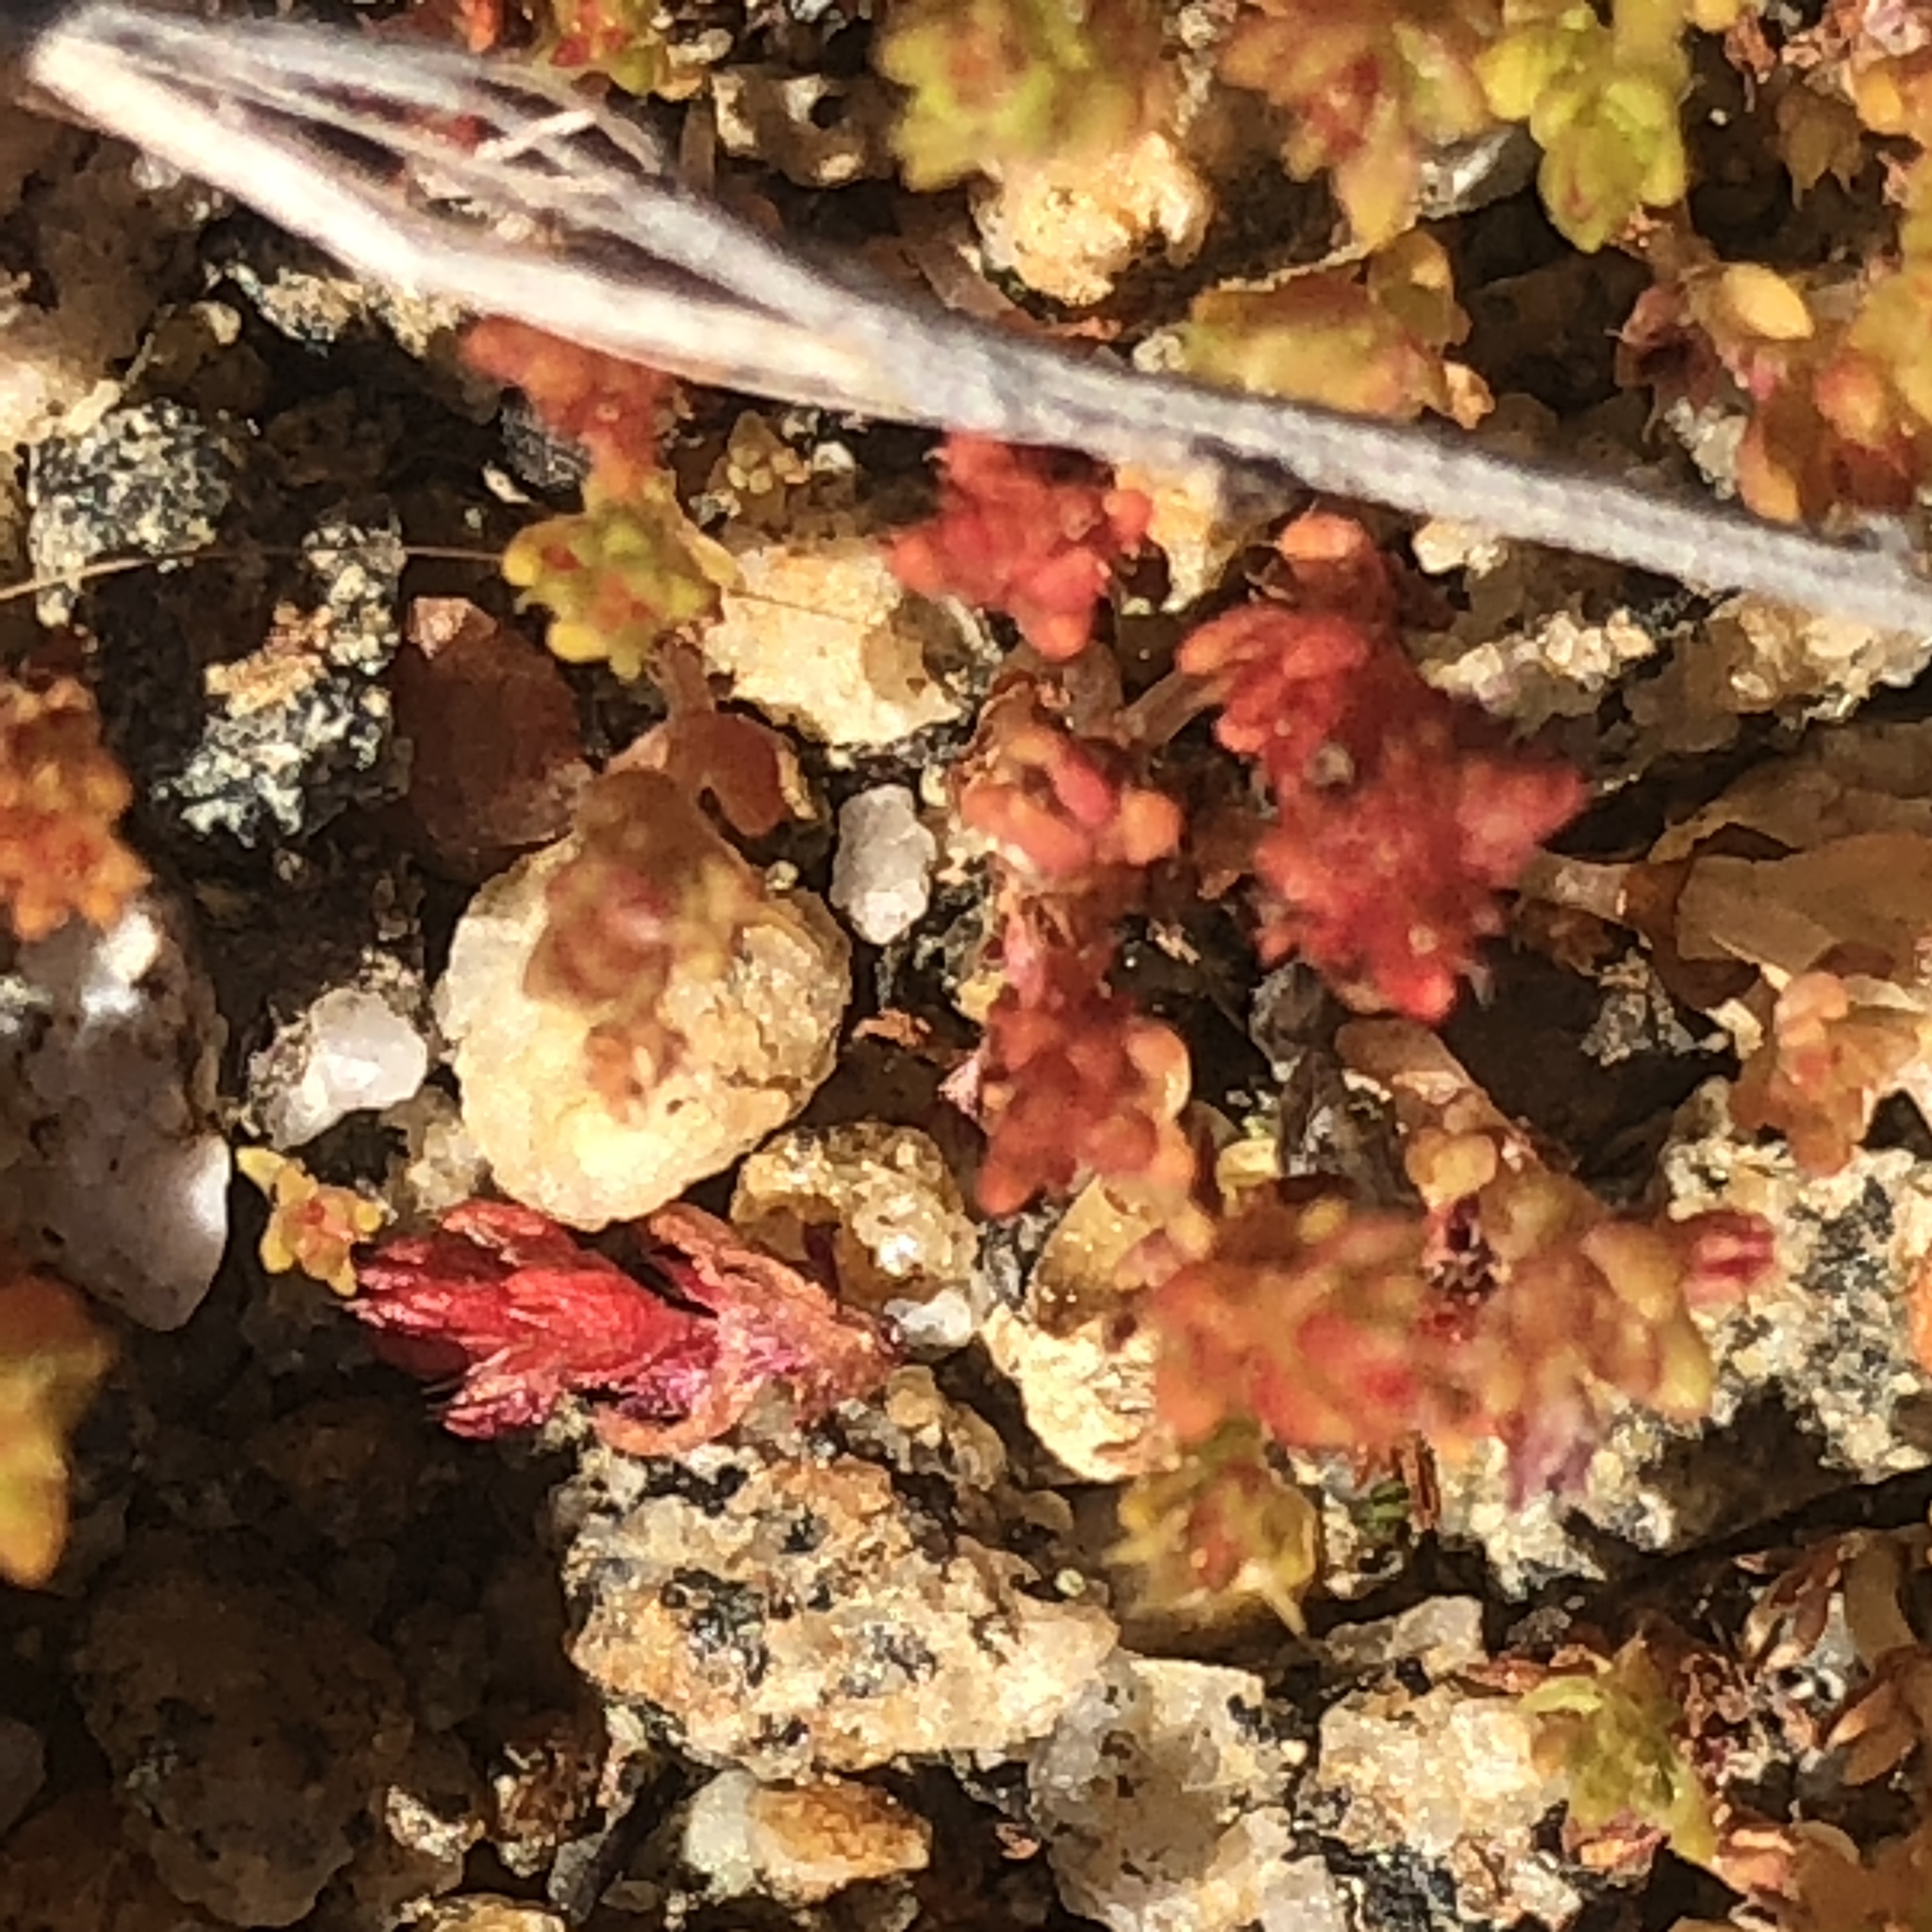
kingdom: Plantae
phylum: Tracheophyta
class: Magnoliopsida
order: Saxifragales
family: Crassulaceae
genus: Crassula
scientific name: Crassula connata
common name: Erect pygmyweed
